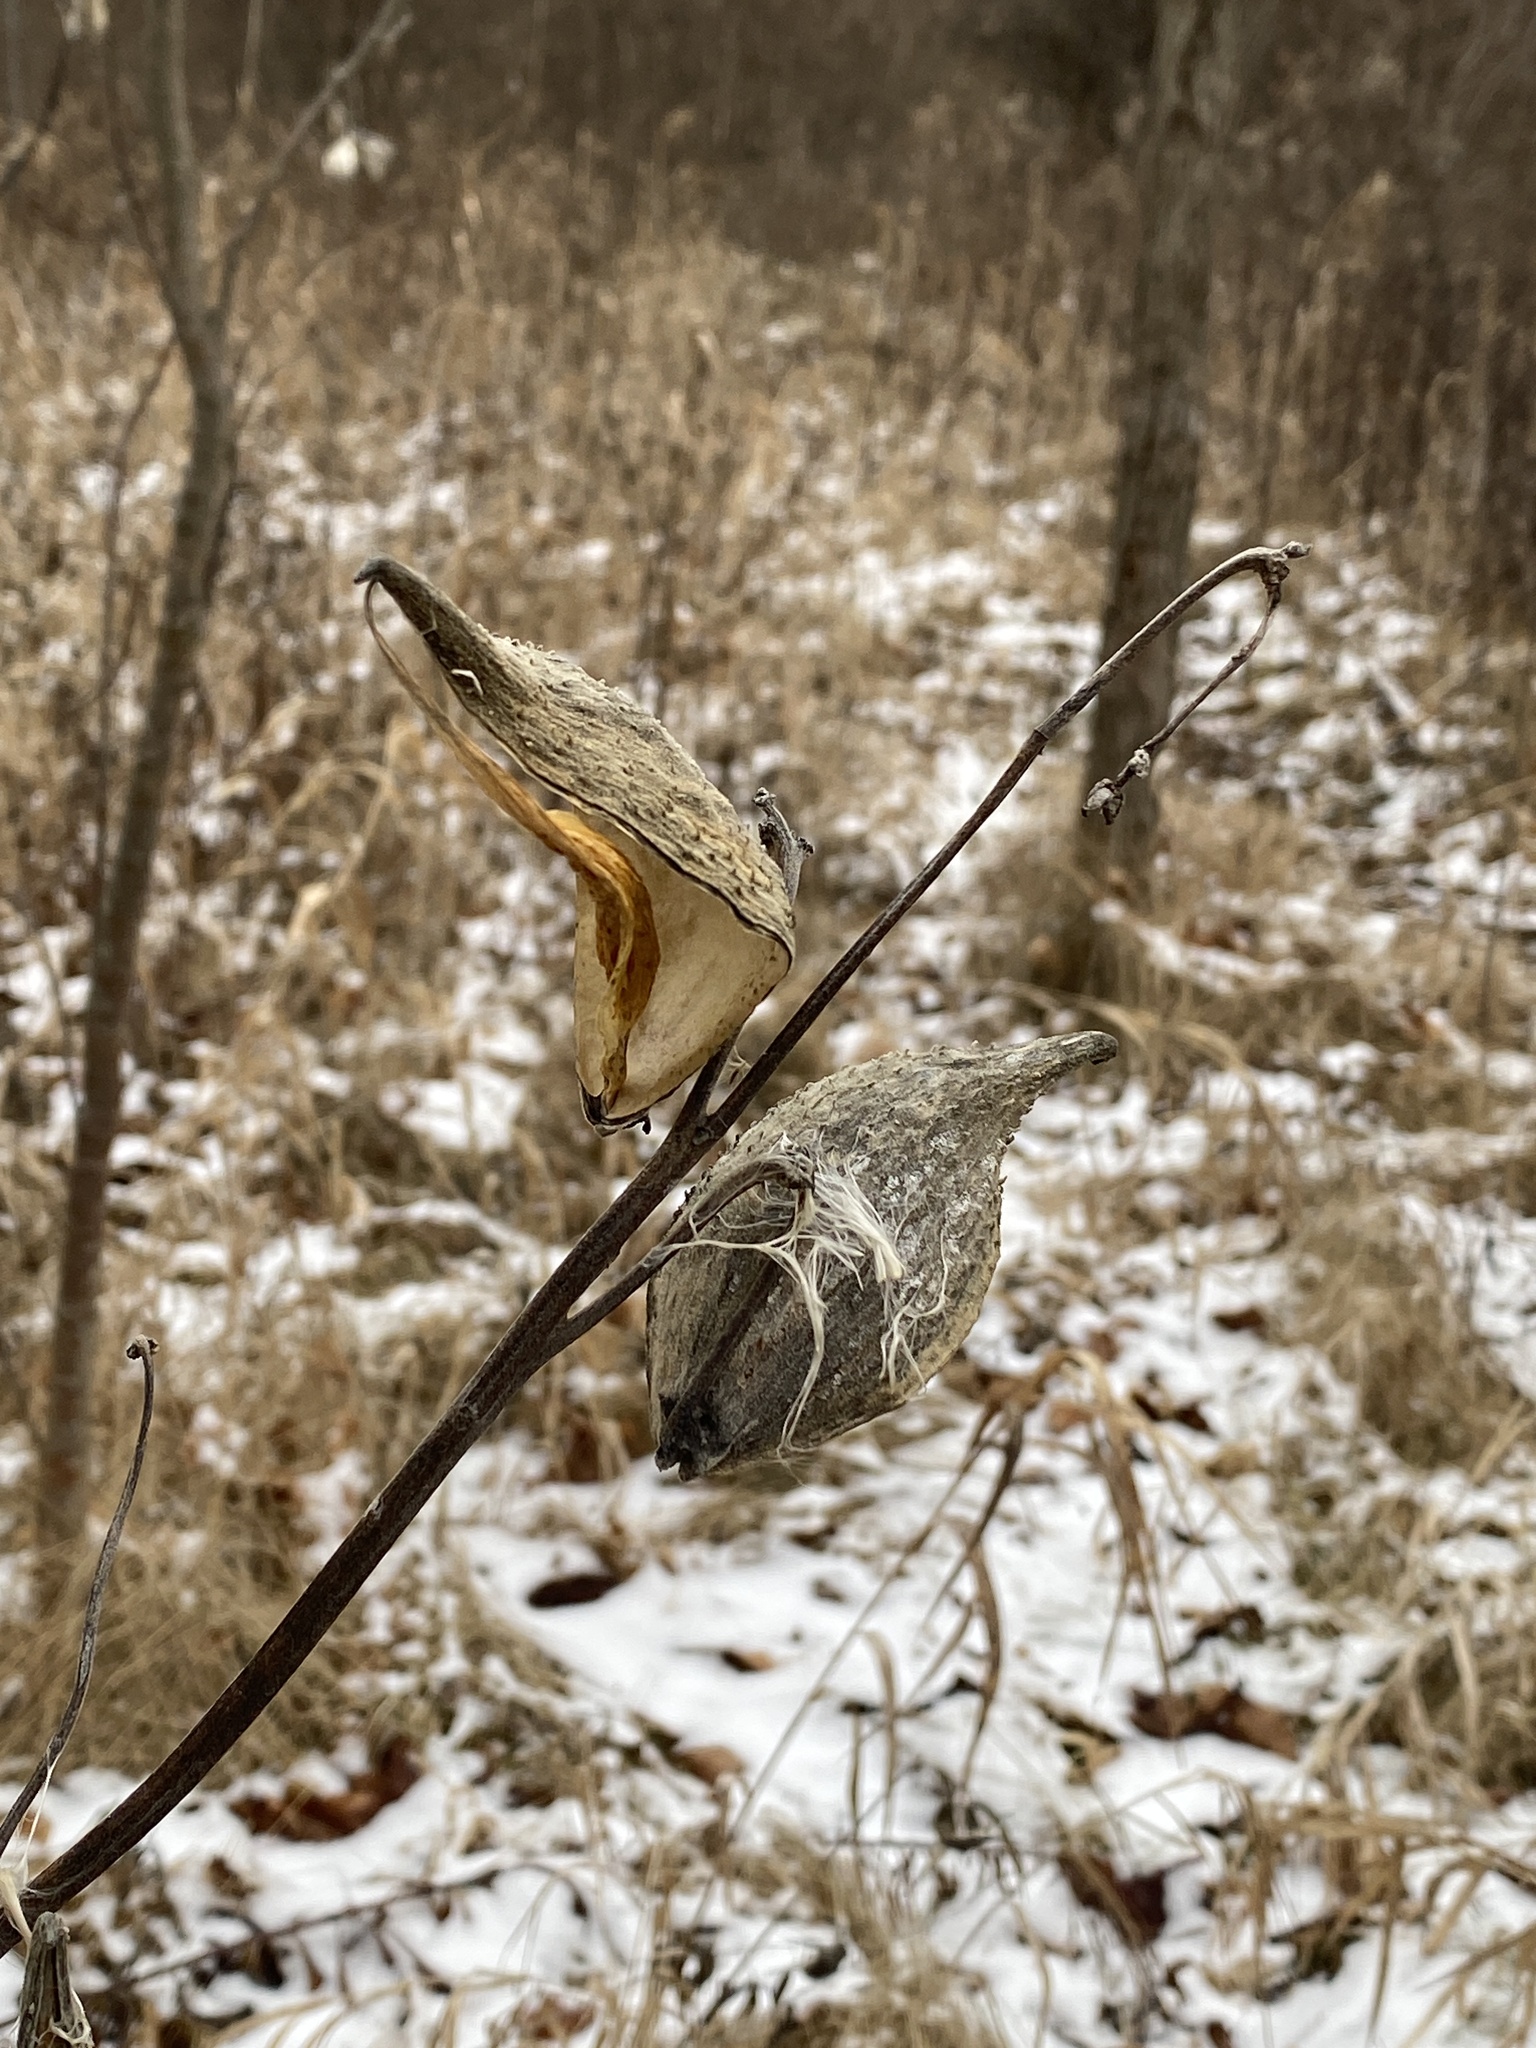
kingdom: Plantae
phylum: Tracheophyta
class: Magnoliopsida
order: Gentianales
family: Apocynaceae
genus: Asclepias
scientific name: Asclepias syriaca
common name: Common milkweed
